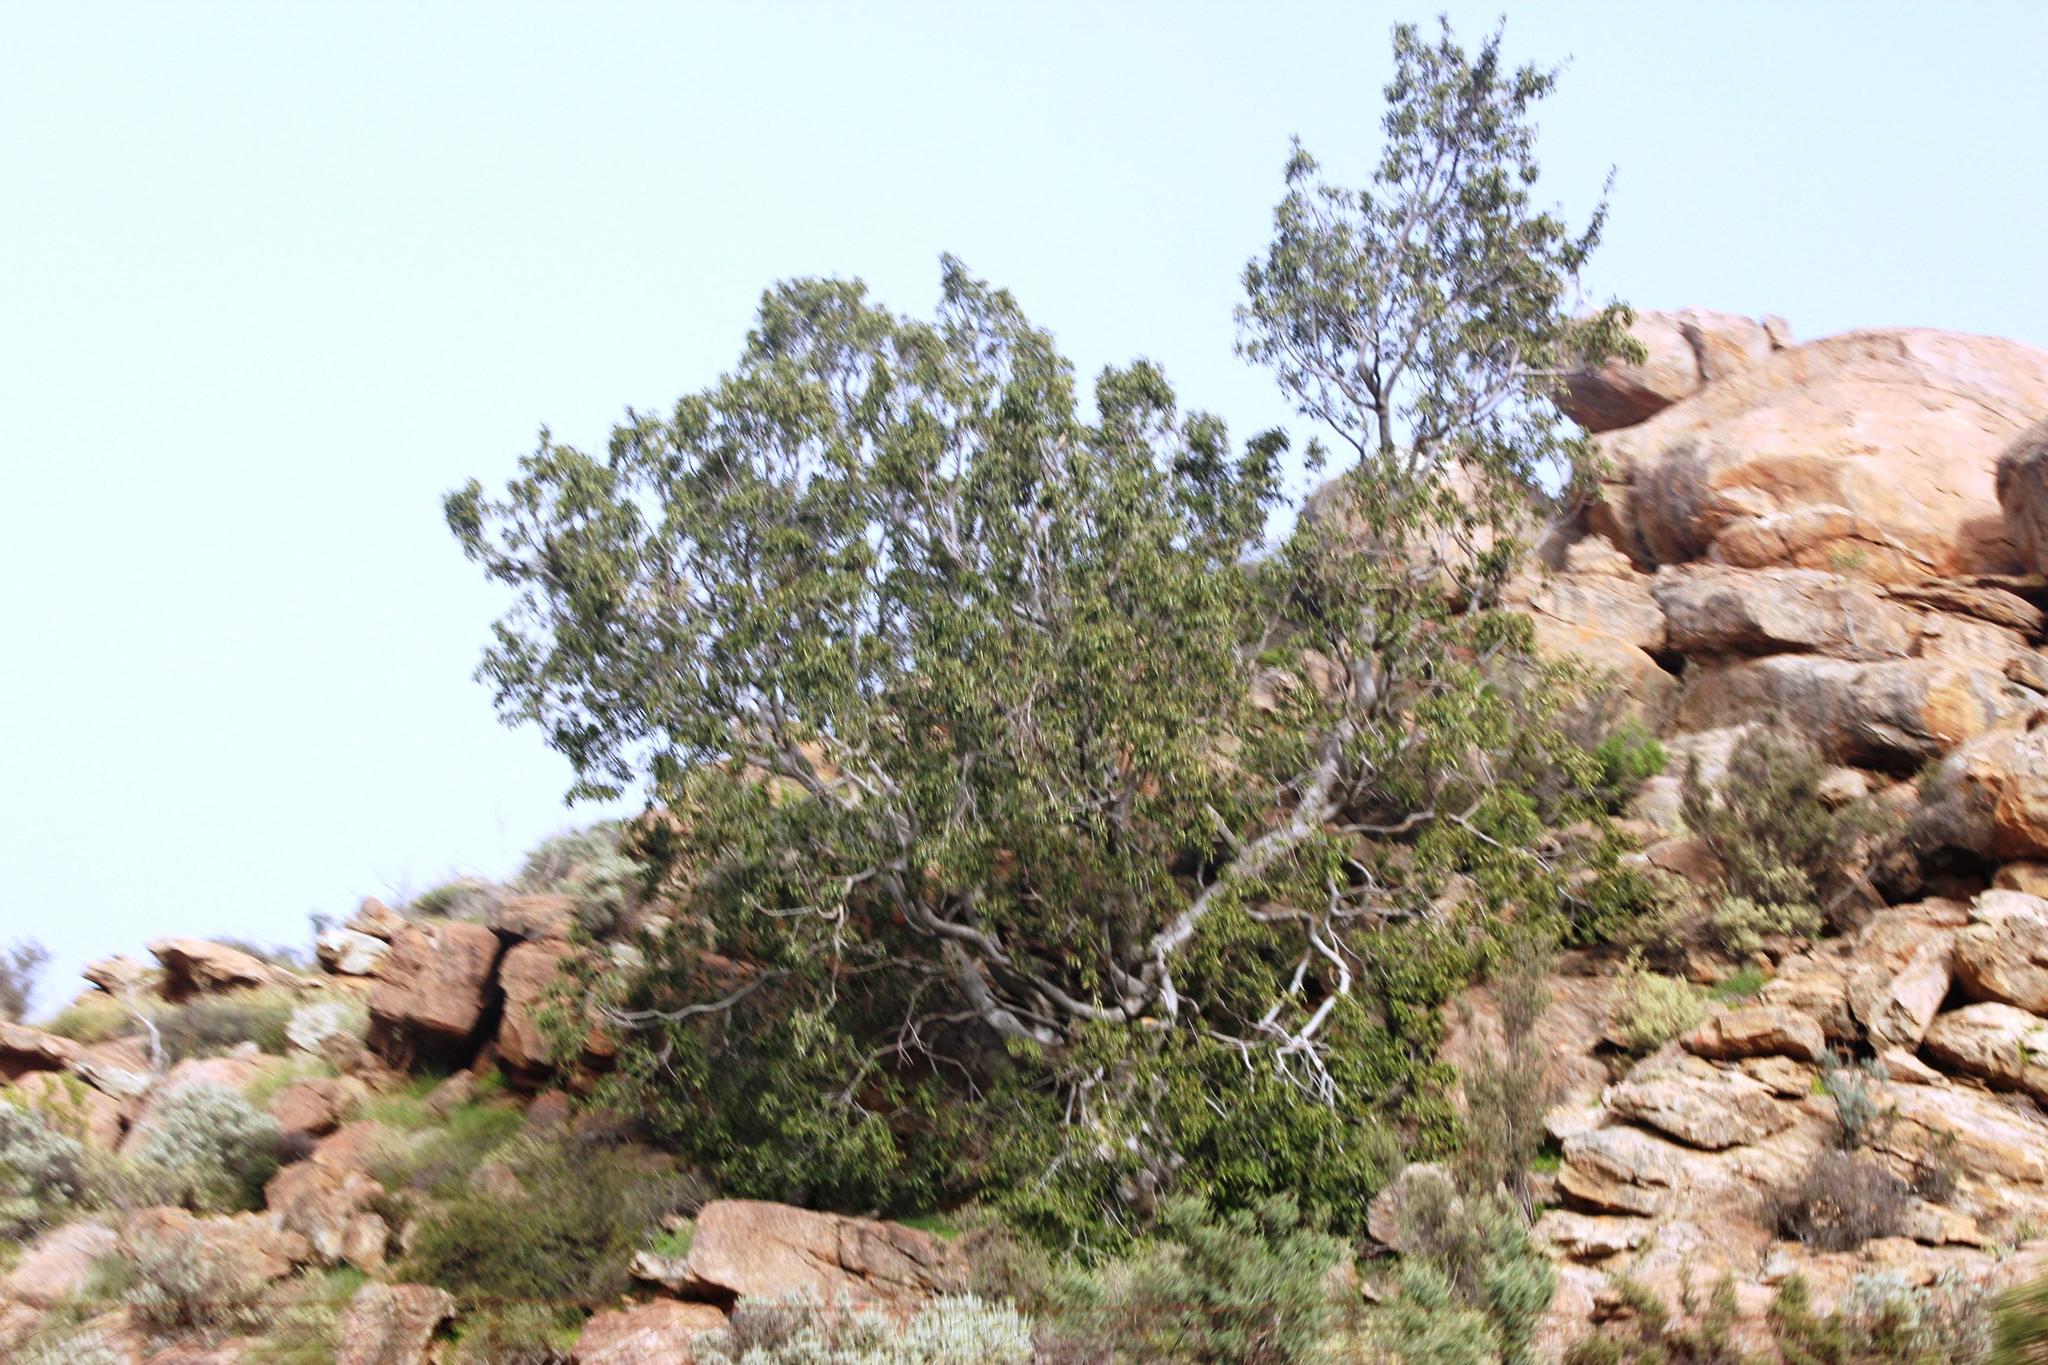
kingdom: Plantae
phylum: Tracheophyta
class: Magnoliopsida
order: Rosales
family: Moraceae
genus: Ficus
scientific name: Ficus cordata
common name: Namaqua rock fig
